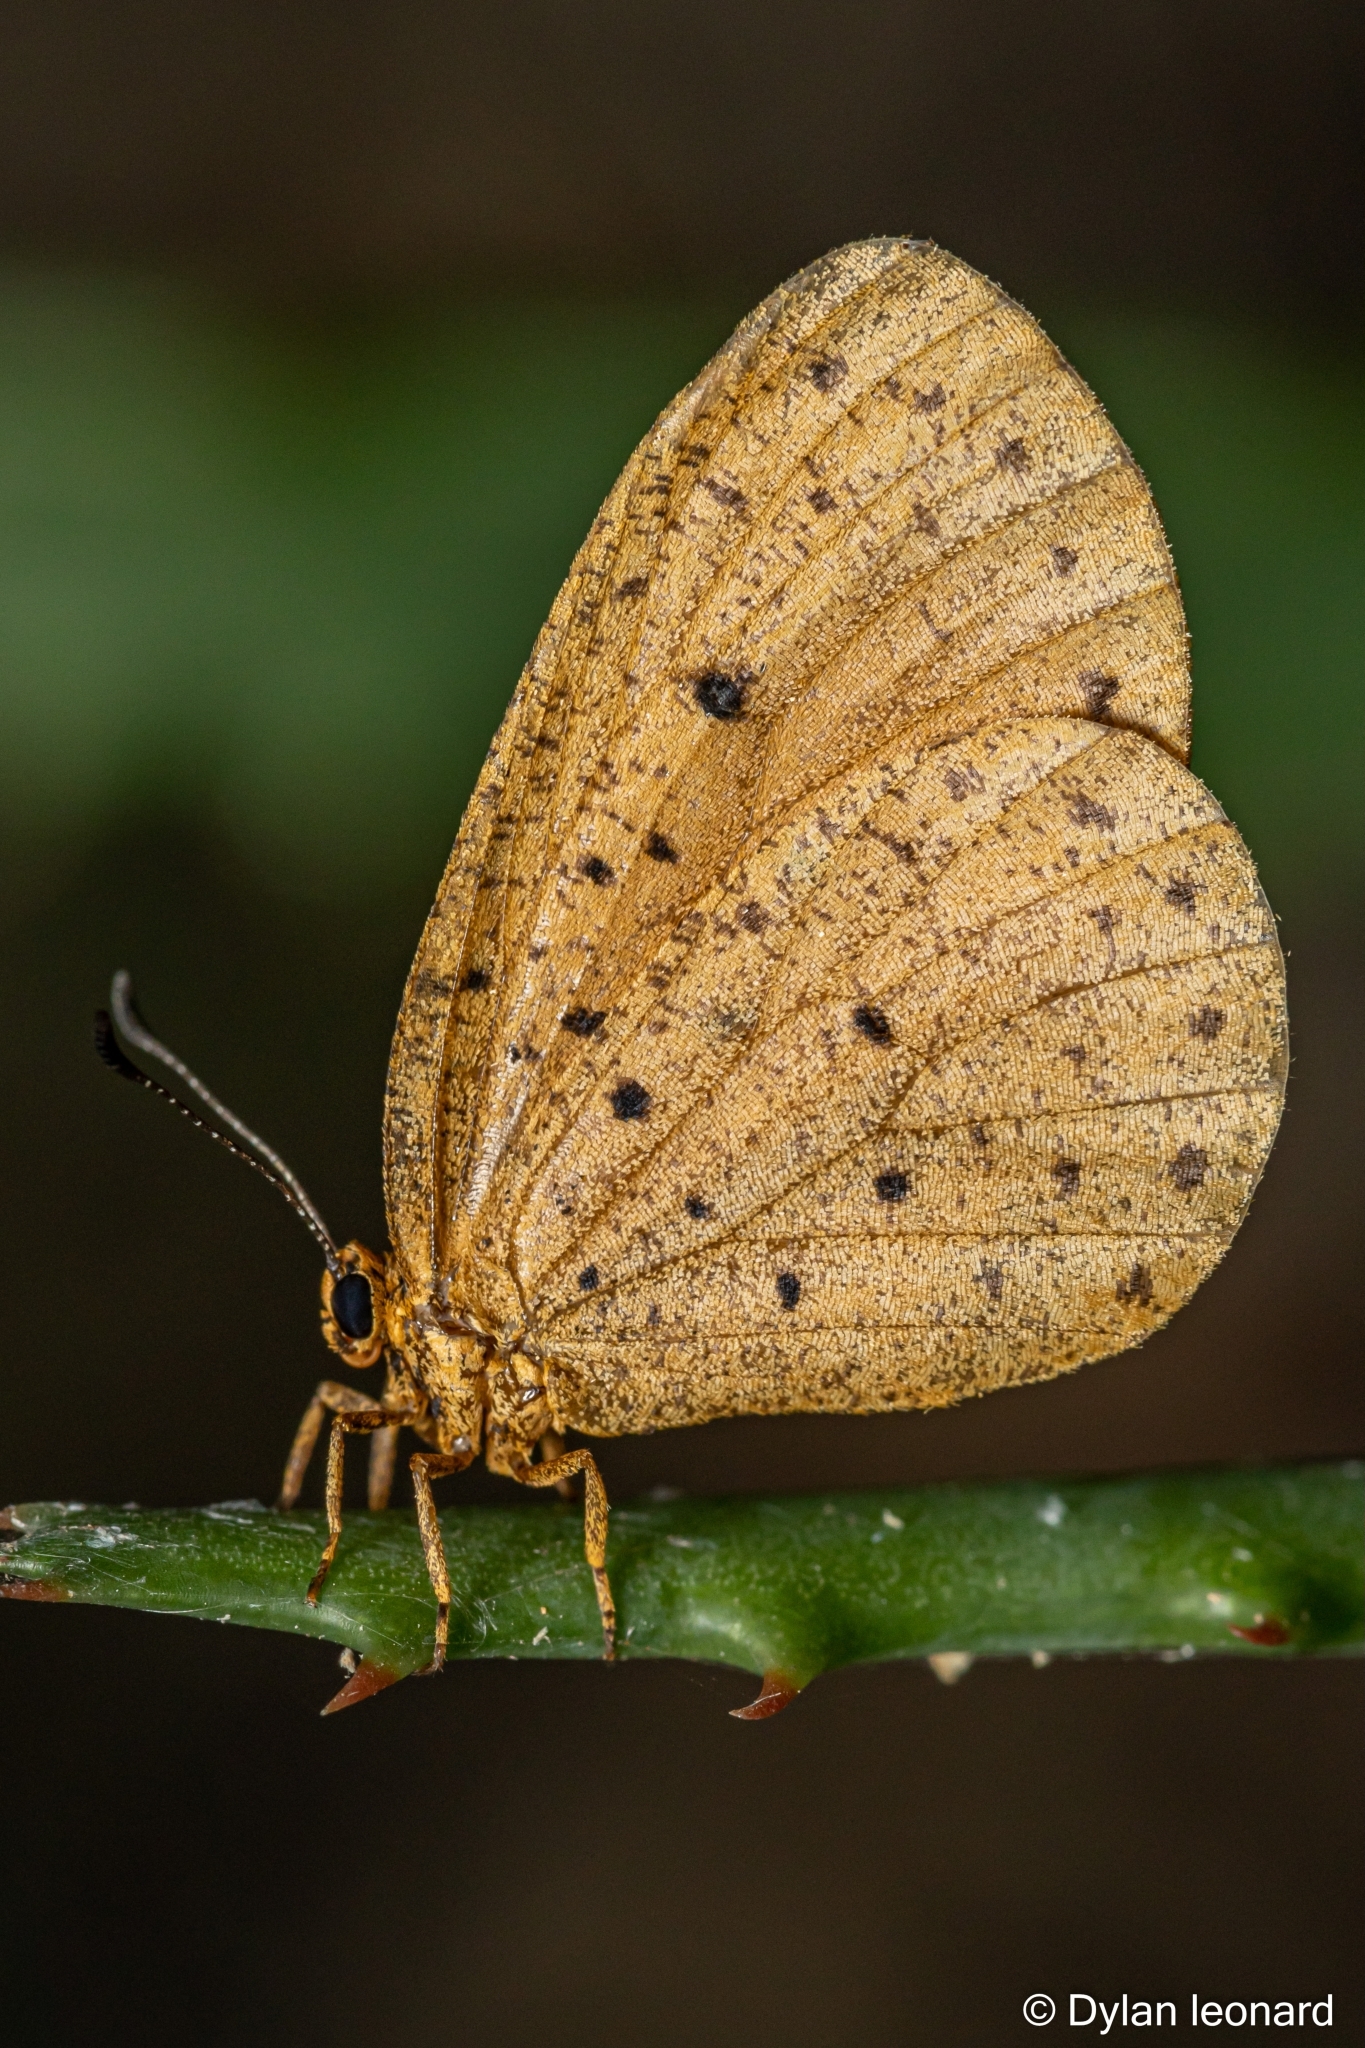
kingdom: Animalia
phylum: Arthropoda
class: Insecta
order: Lepidoptera
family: Lycaenidae
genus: Pentila
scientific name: Pentila tropicalis
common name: Spotted buff
